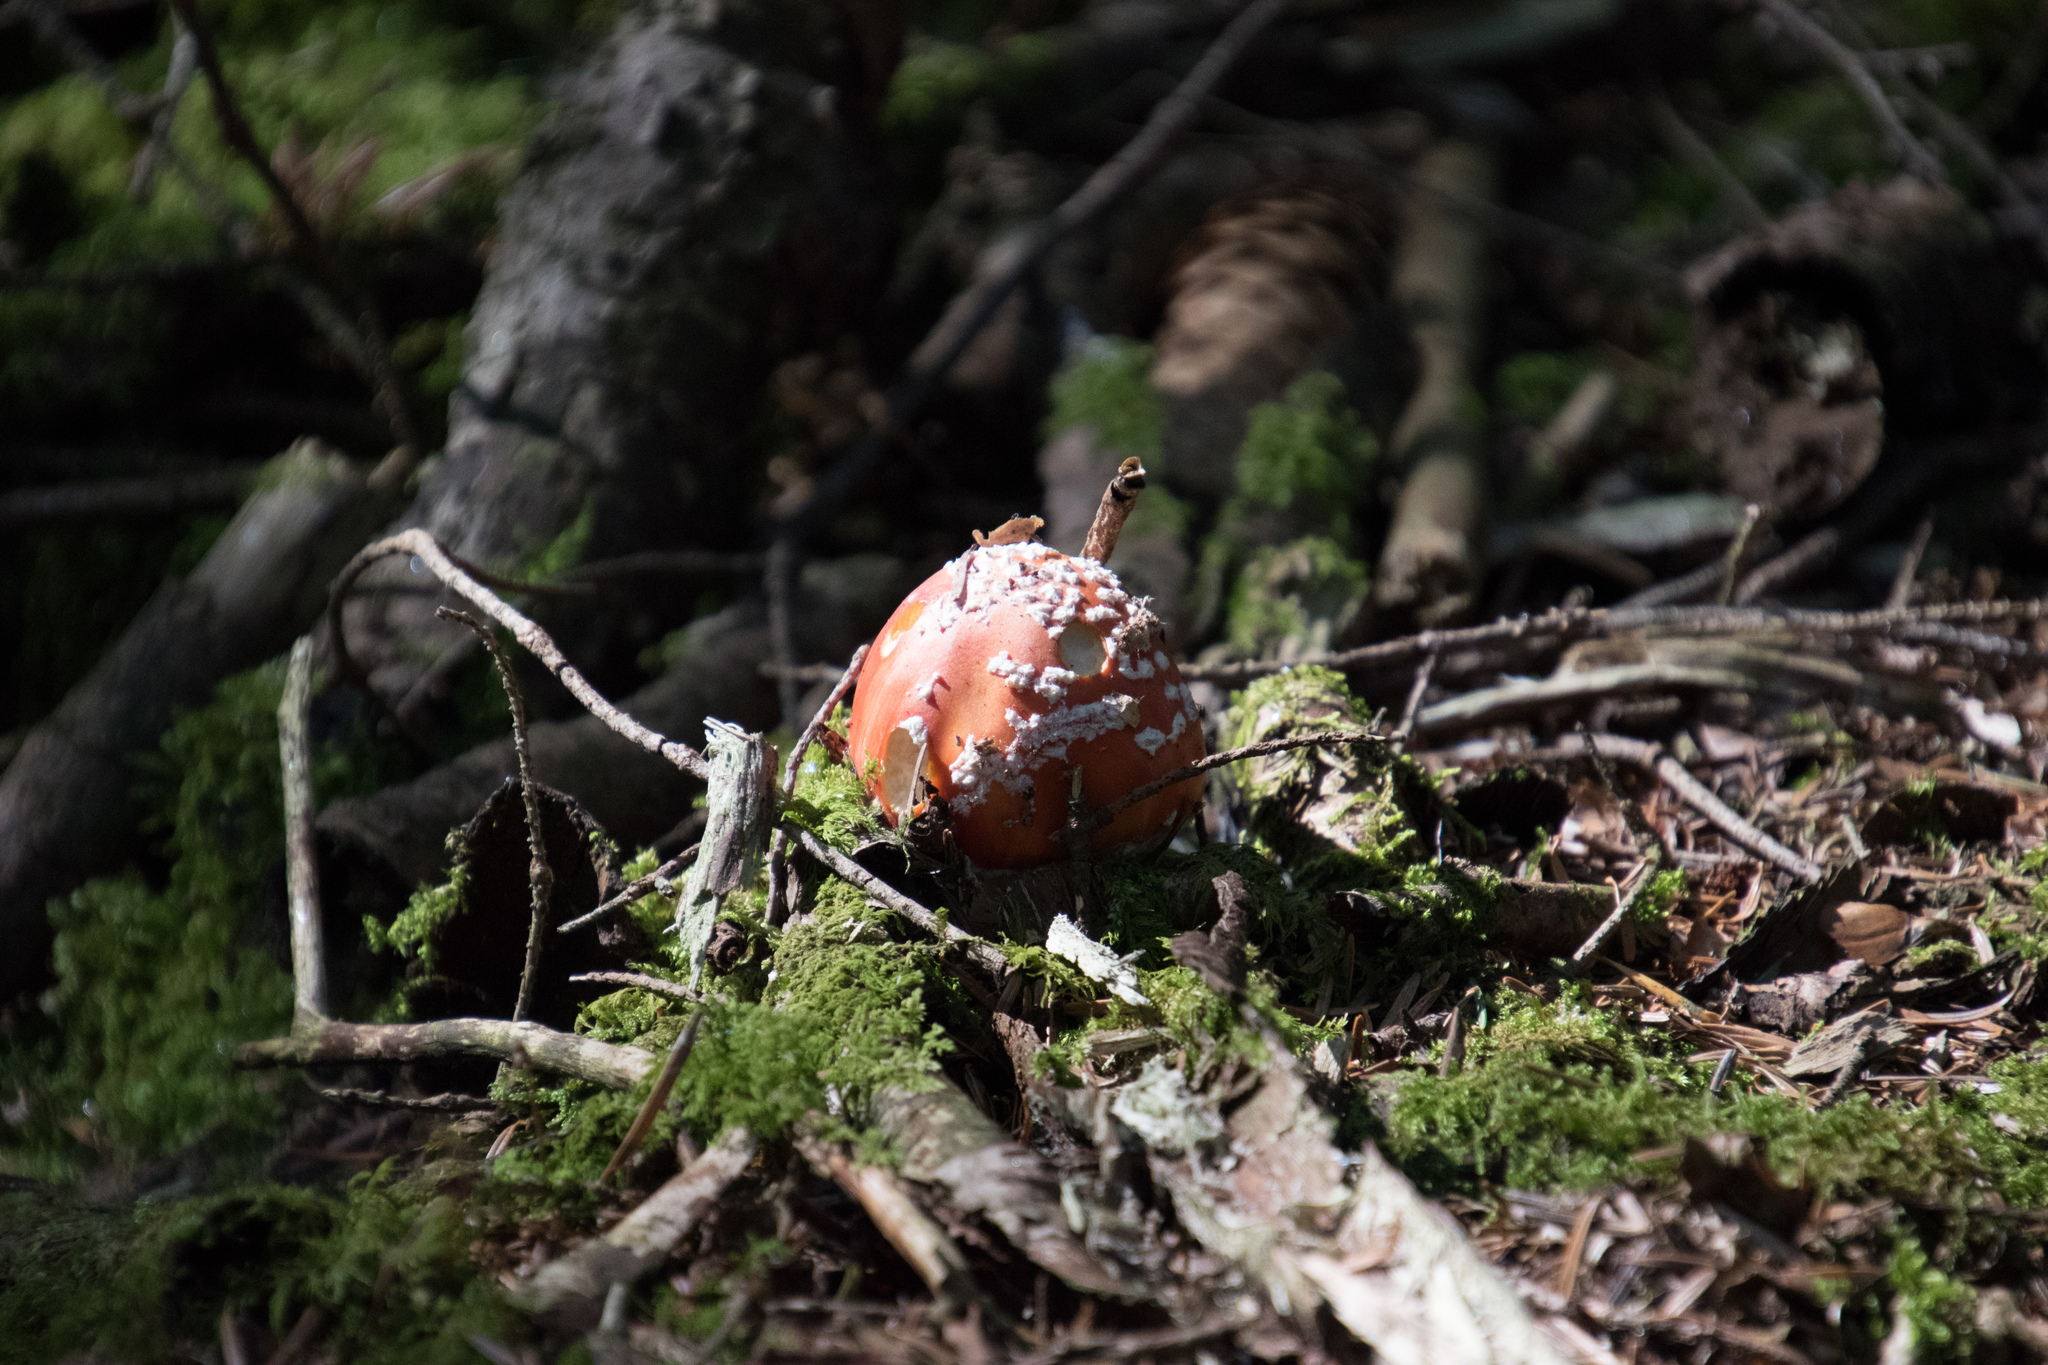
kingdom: Fungi
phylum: Basidiomycota
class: Agaricomycetes
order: Agaricales
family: Amanitaceae
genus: Amanita
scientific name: Amanita muscaria
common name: Fly agaric
